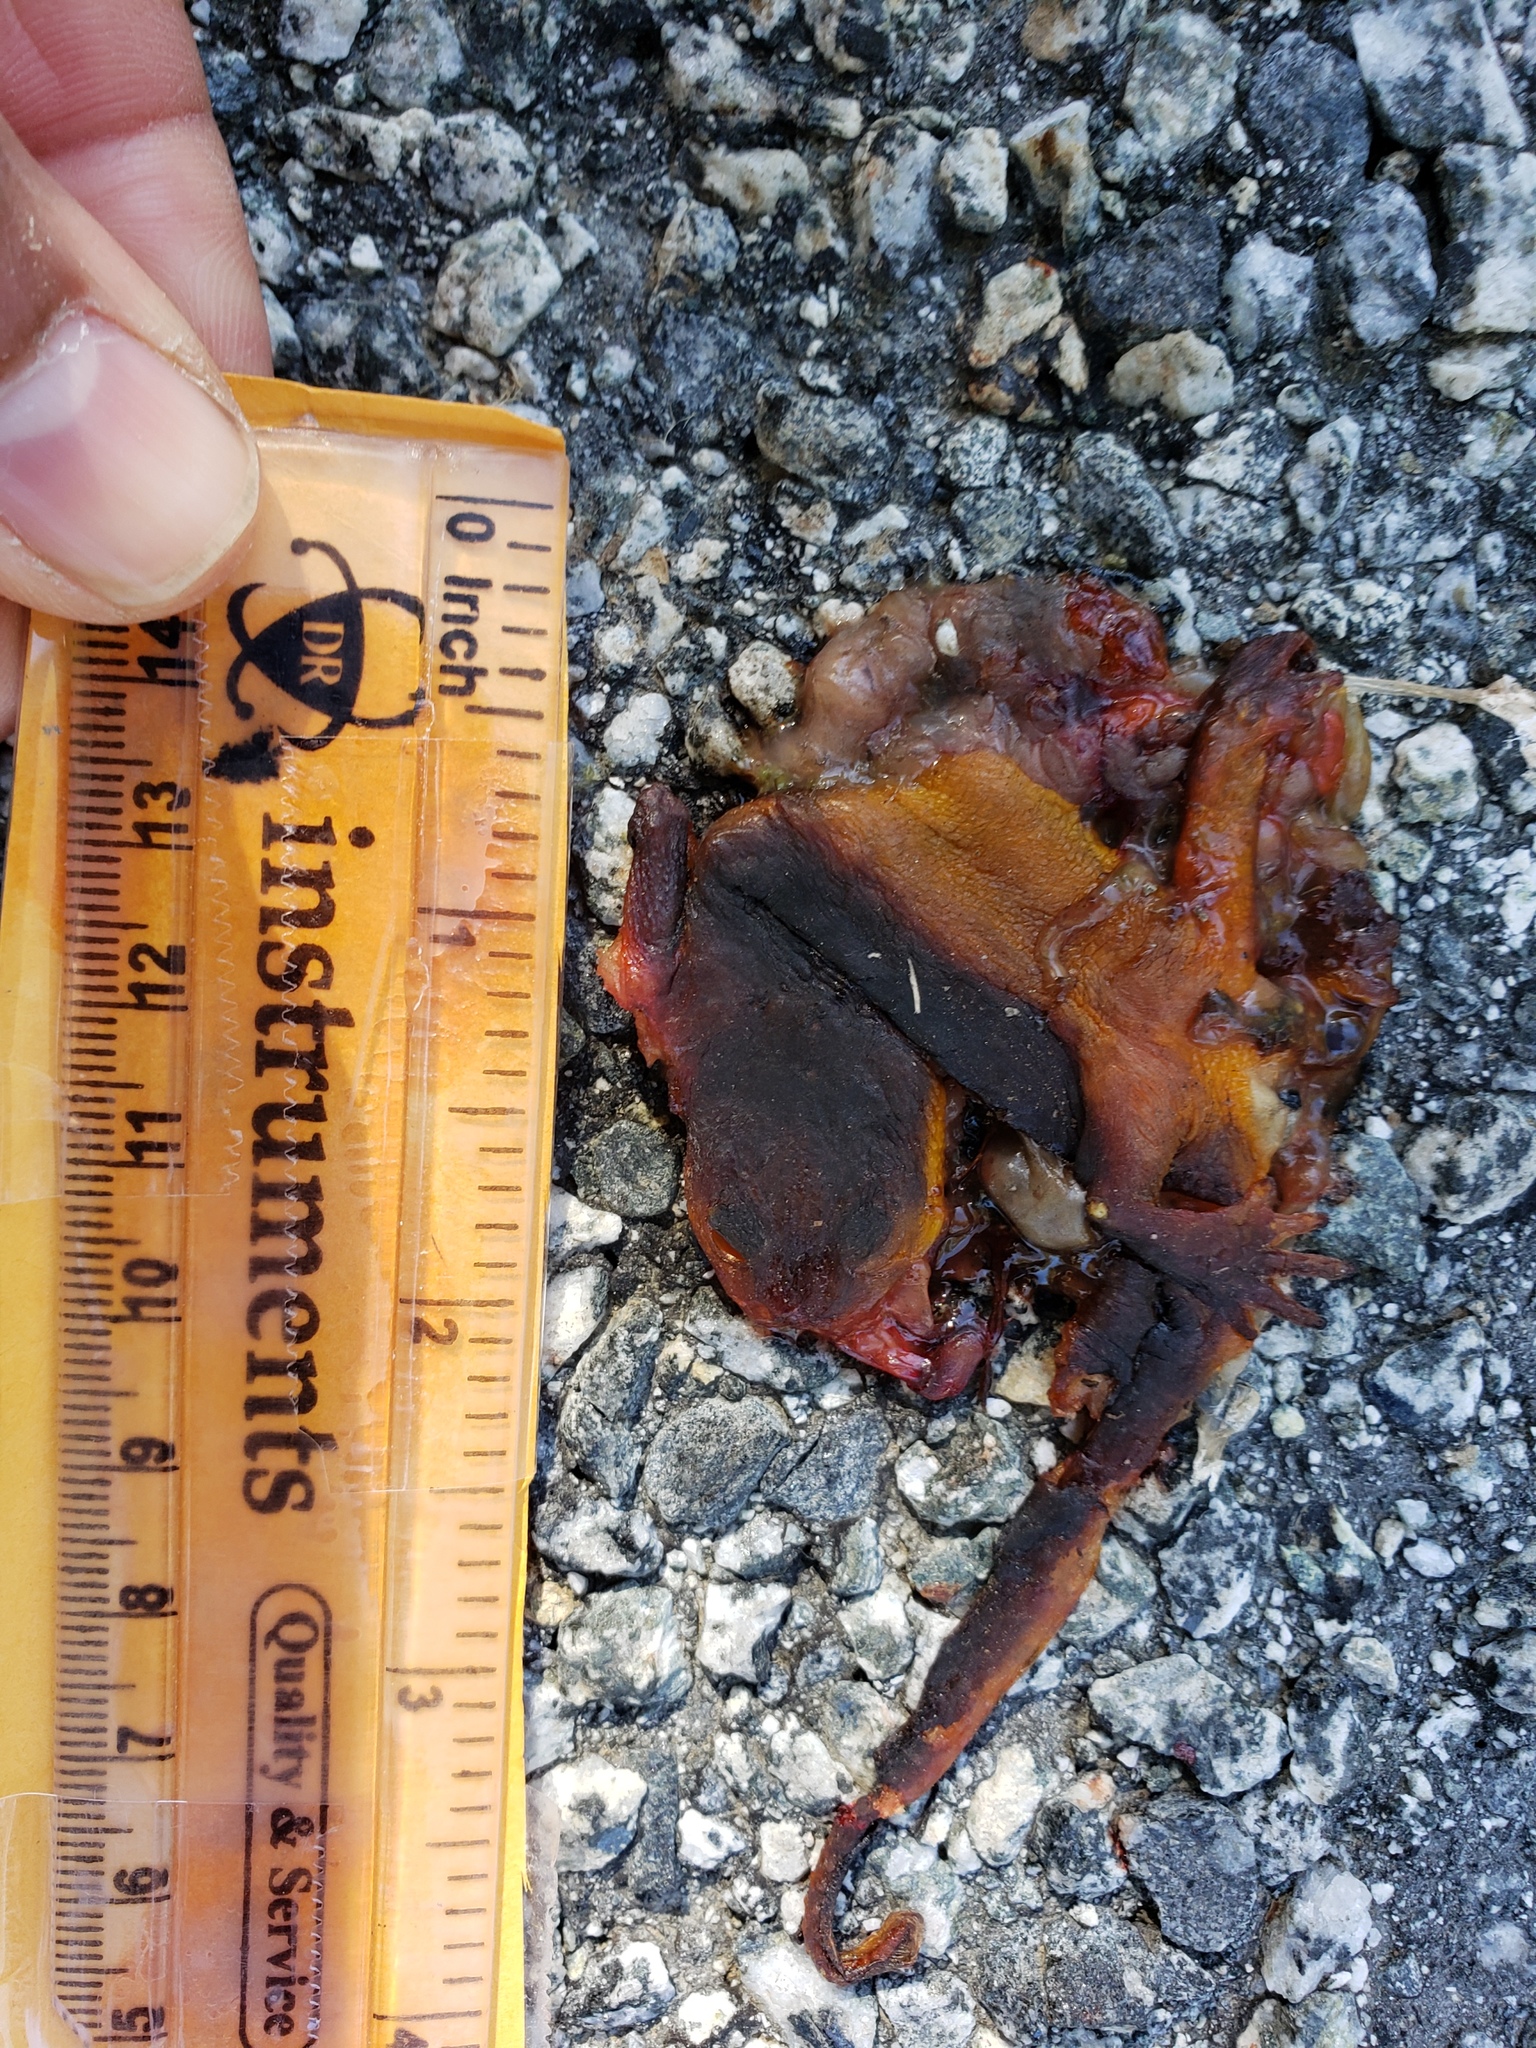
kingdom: Animalia
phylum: Chordata
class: Amphibia
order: Caudata
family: Salamandridae
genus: Taricha
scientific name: Taricha
